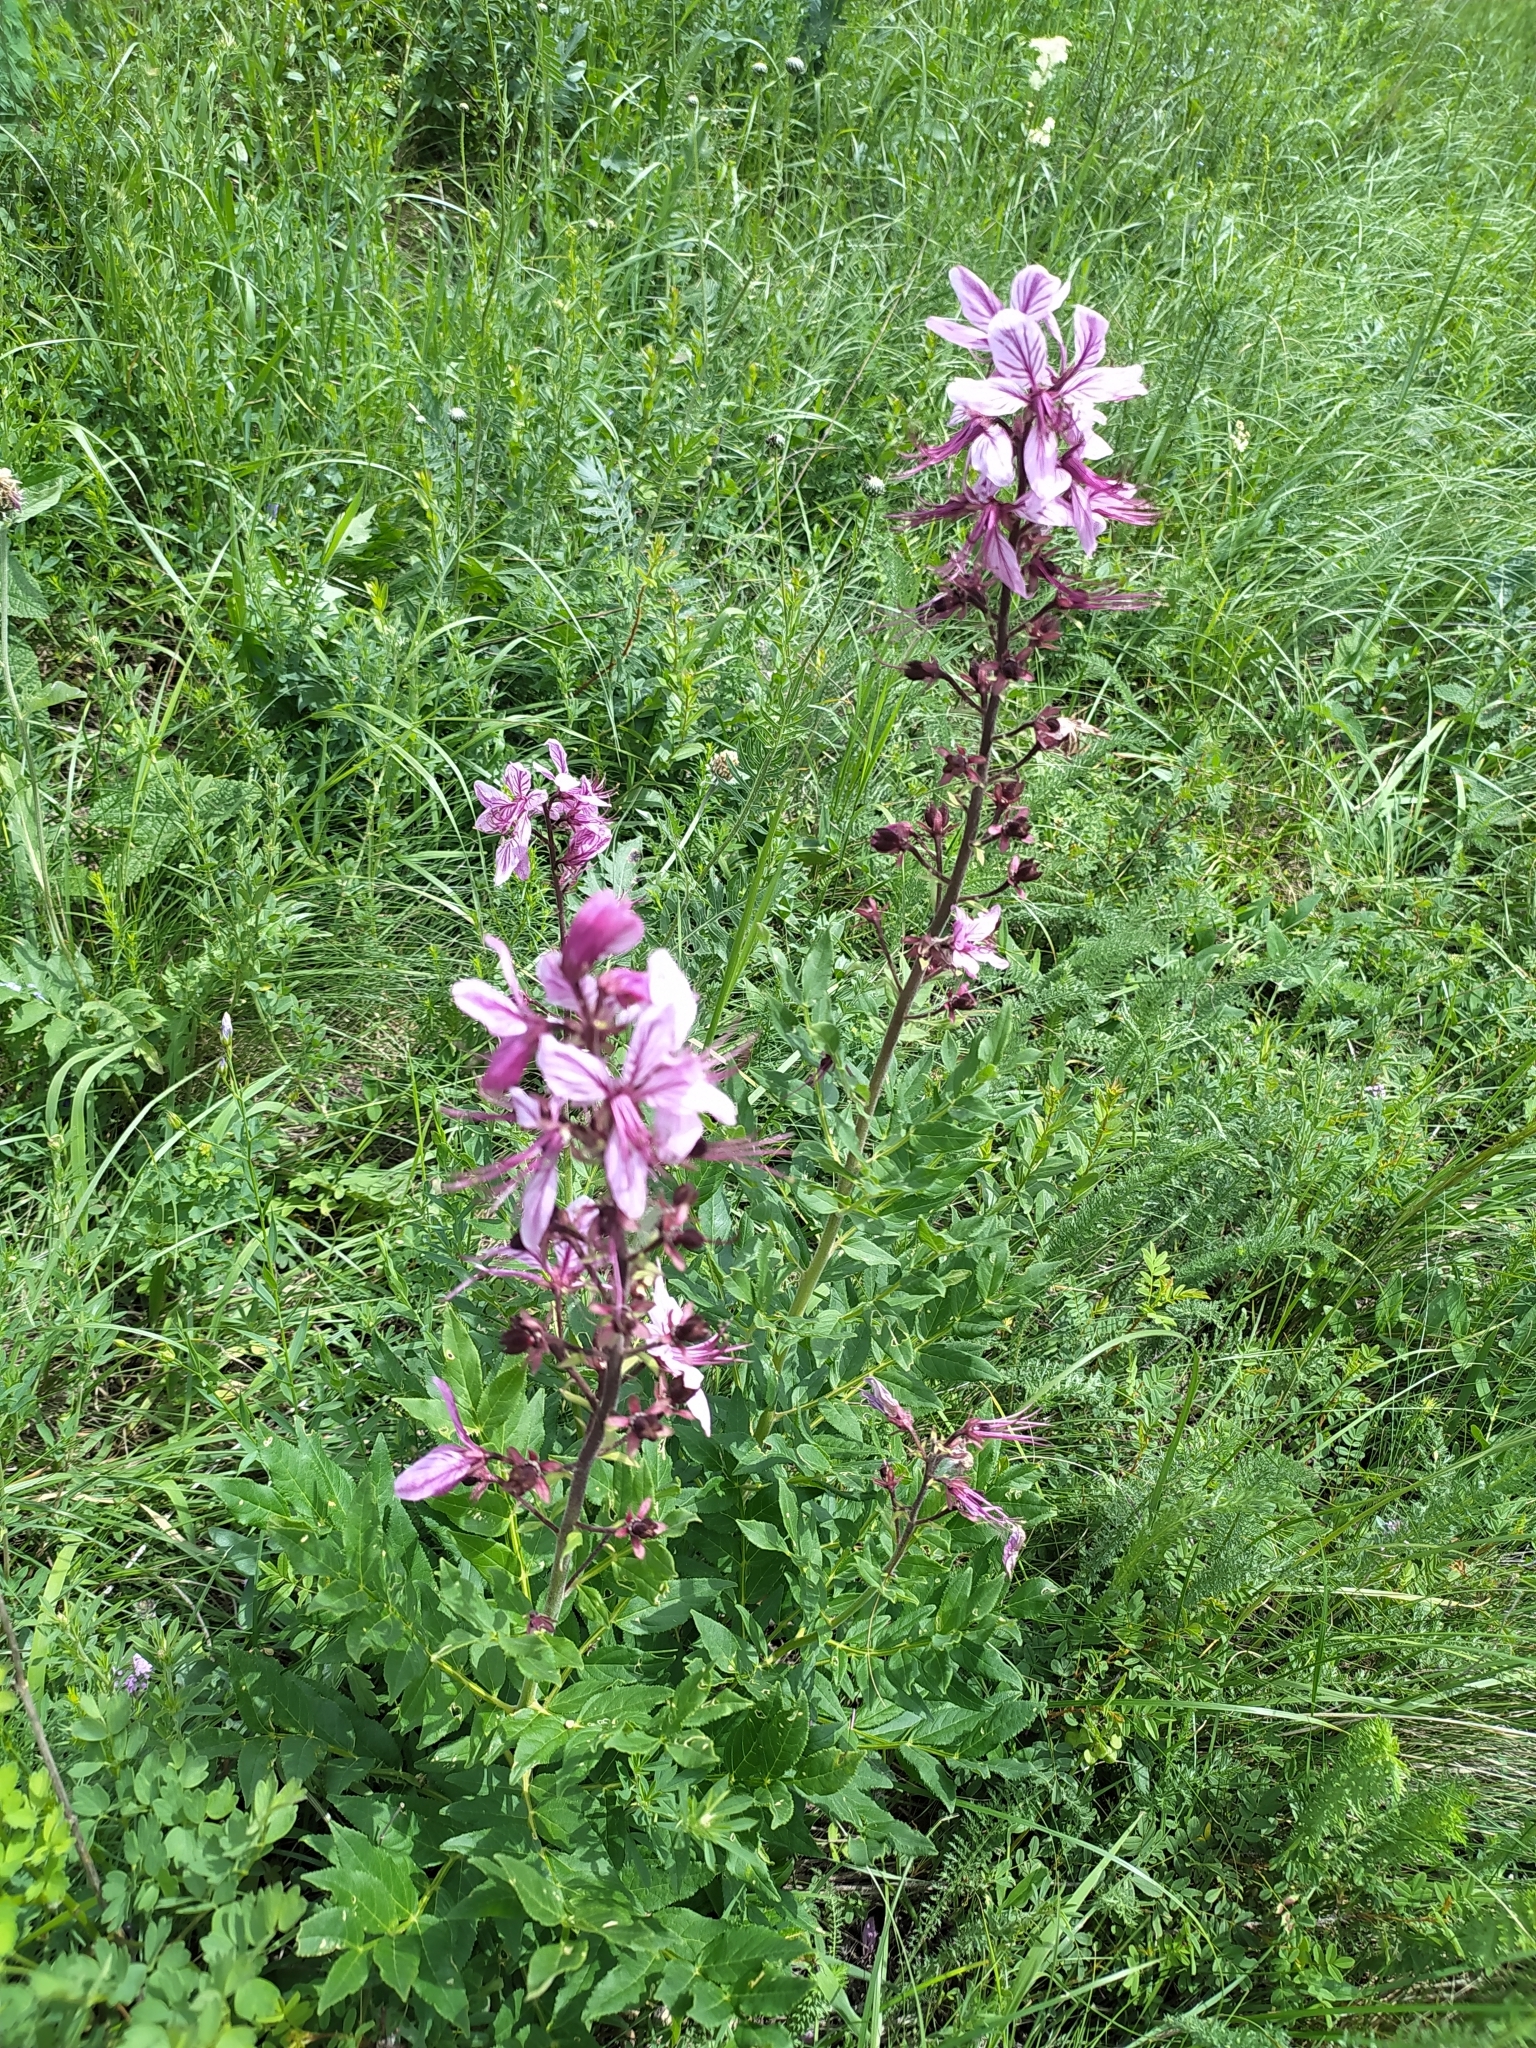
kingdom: Plantae
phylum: Tracheophyta
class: Magnoliopsida
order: Sapindales
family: Rutaceae
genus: Dictamnus
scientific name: Dictamnus albus
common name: Gasplant
